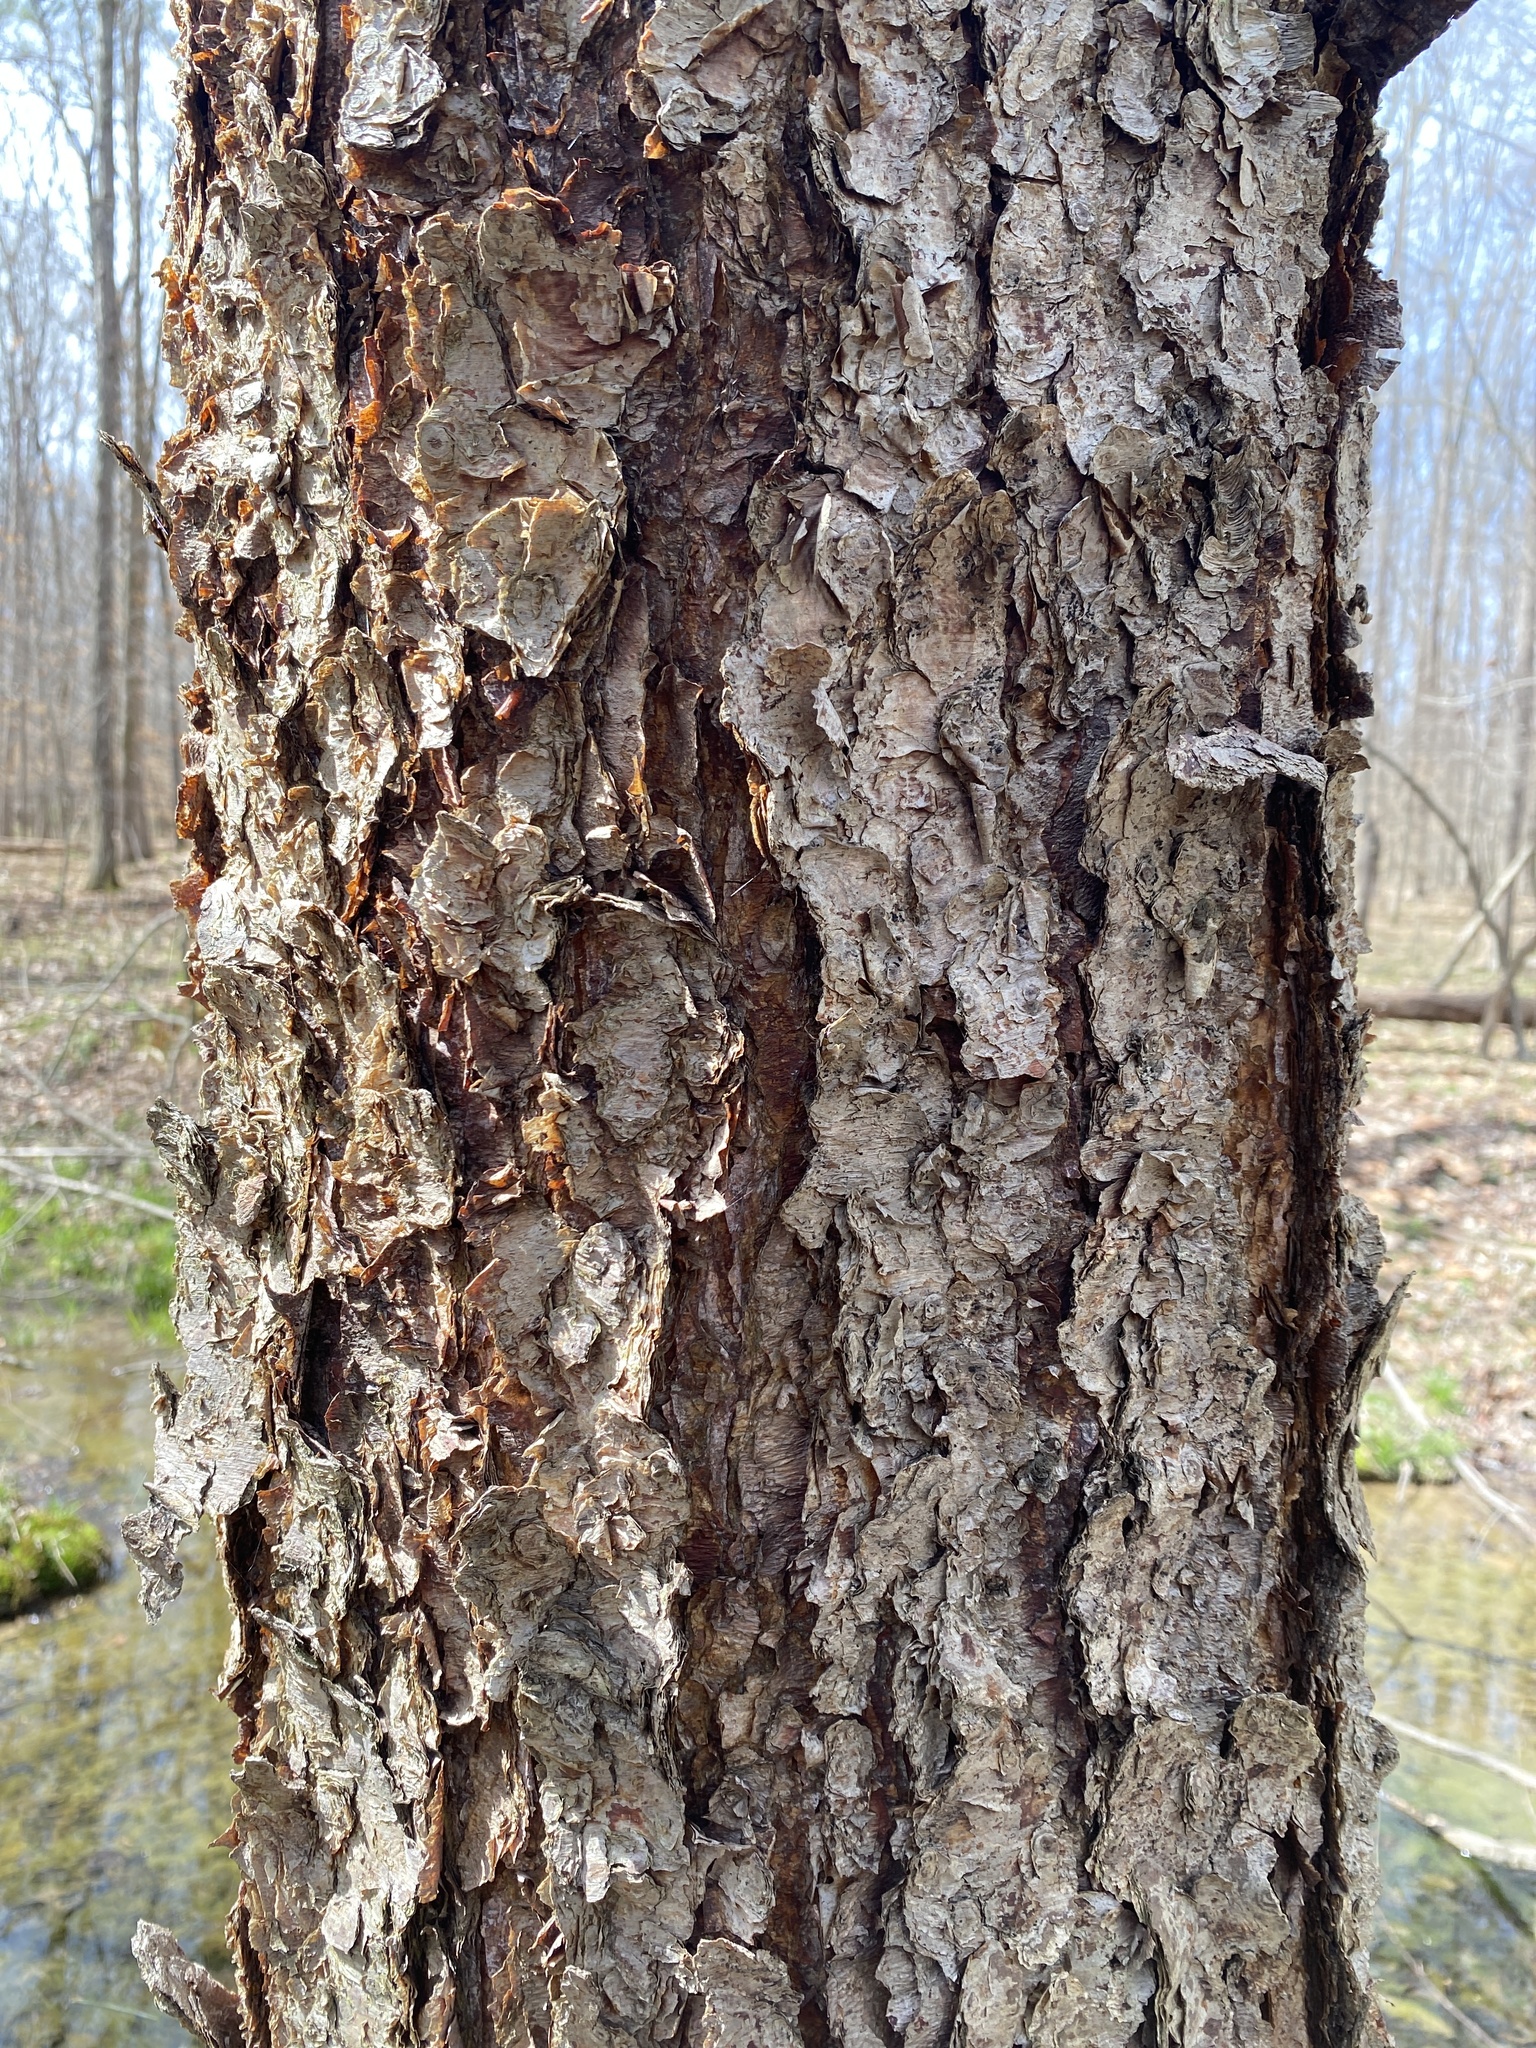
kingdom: Plantae
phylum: Tracheophyta
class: Magnoliopsida
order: Fagales
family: Betulaceae
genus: Betula
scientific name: Betula nigra
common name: Black birch
